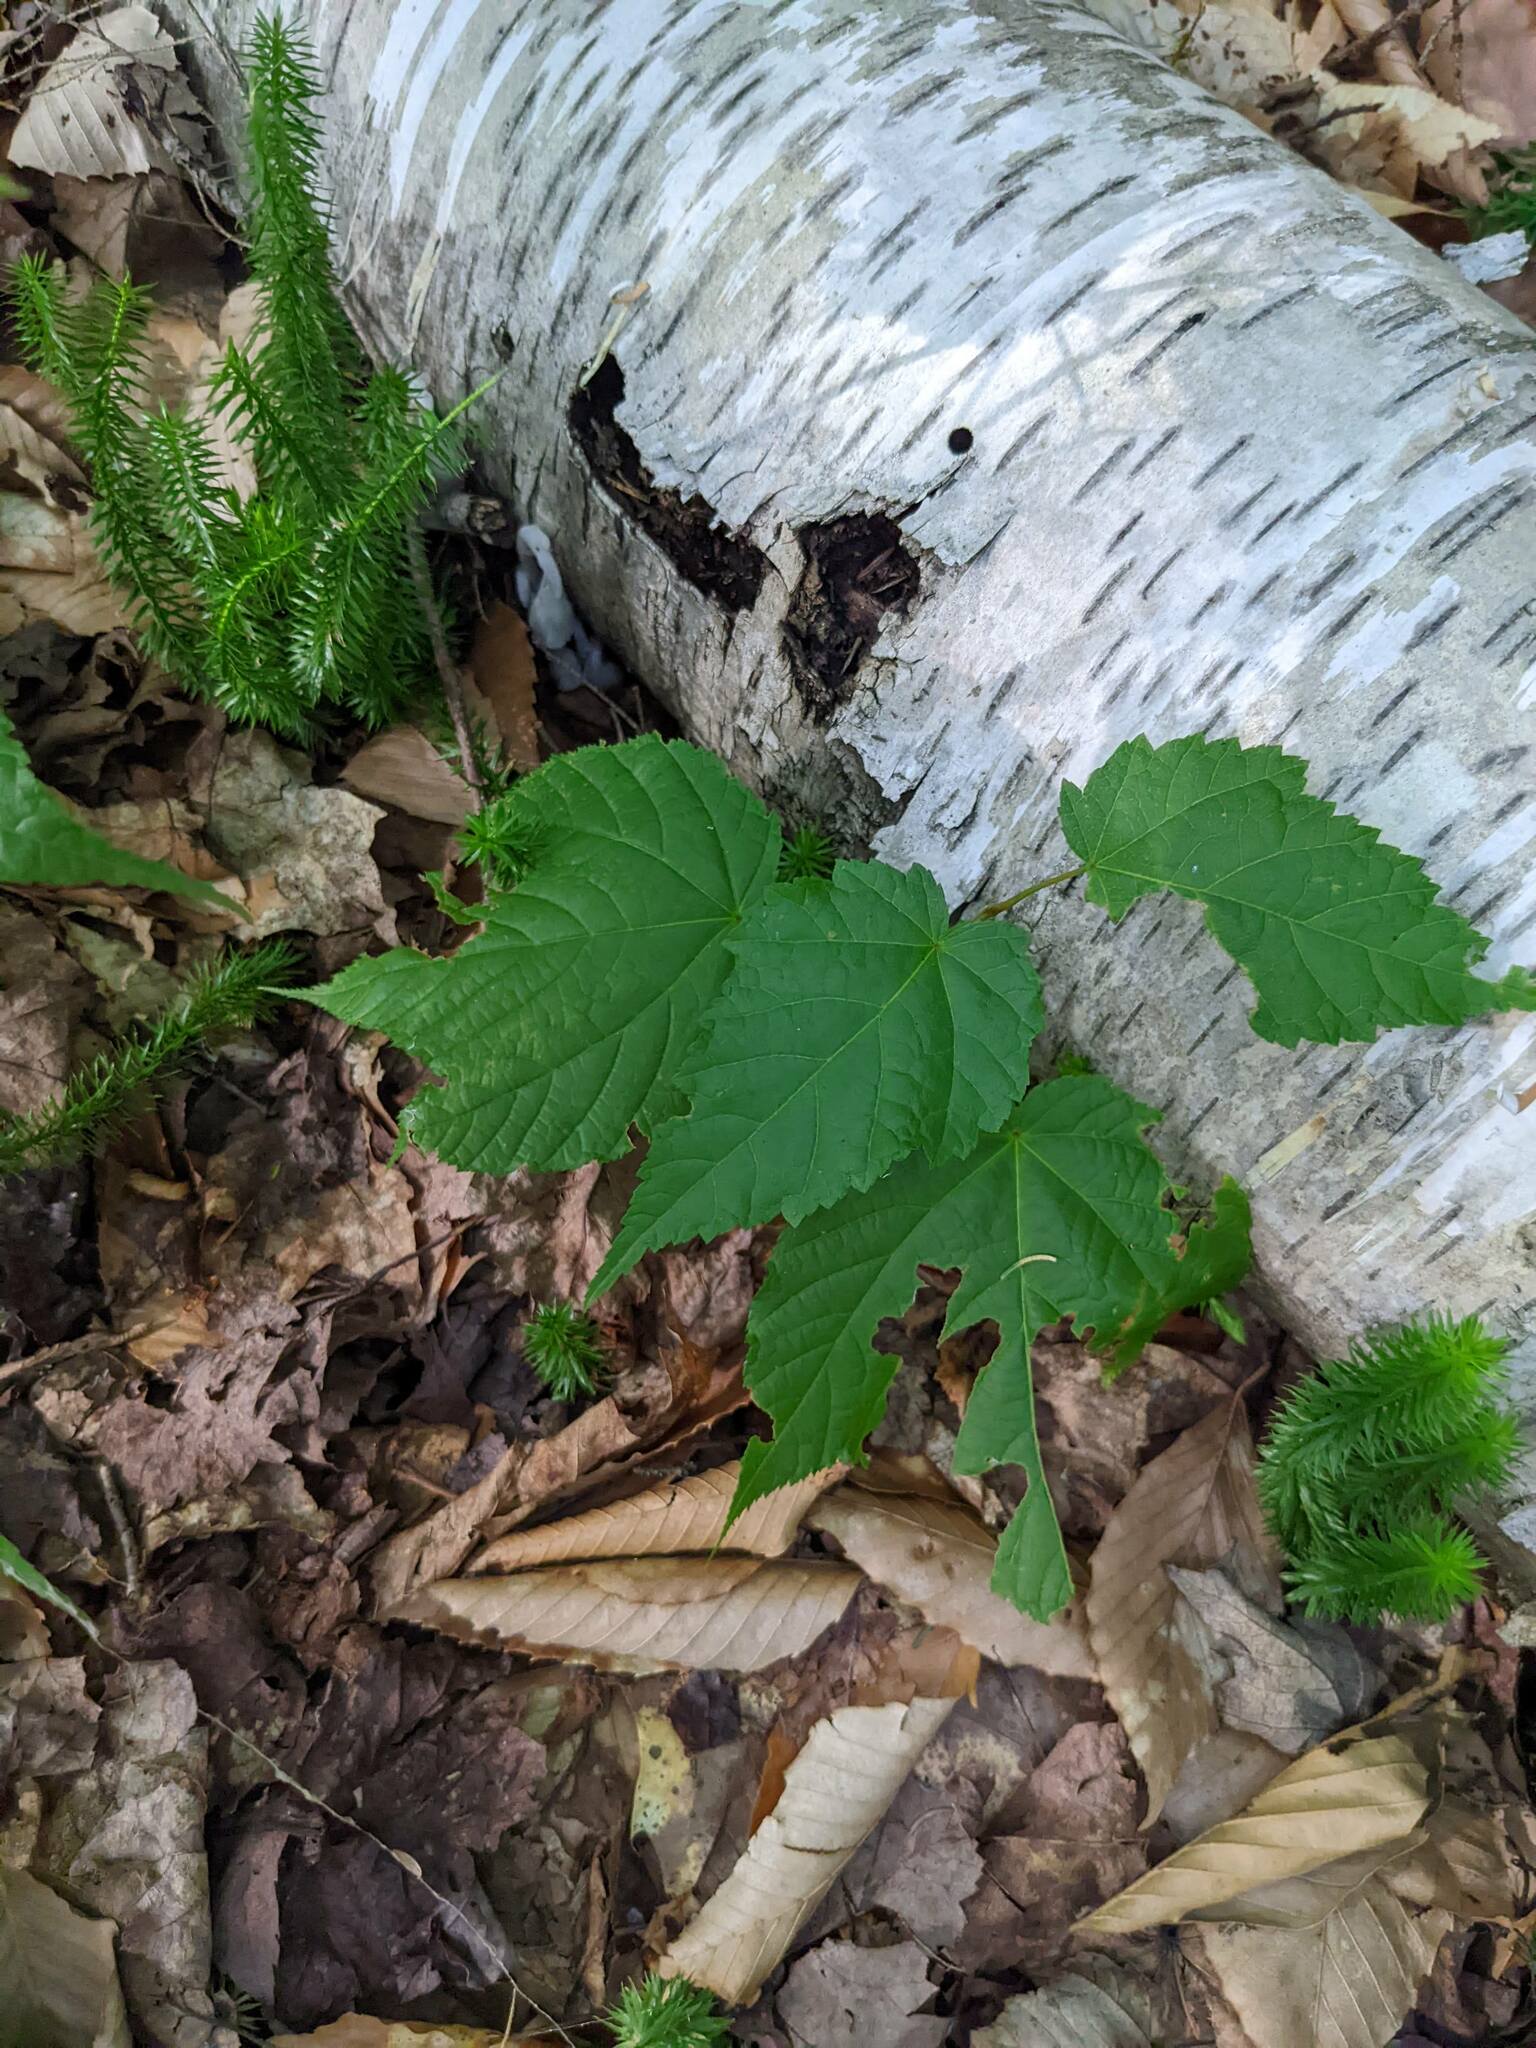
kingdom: Plantae
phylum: Tracheophyta
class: Magnoliopsida
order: Sapindales
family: Sapindaceae
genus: Acer
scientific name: Acer pensylvanicum
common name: Moosewood
